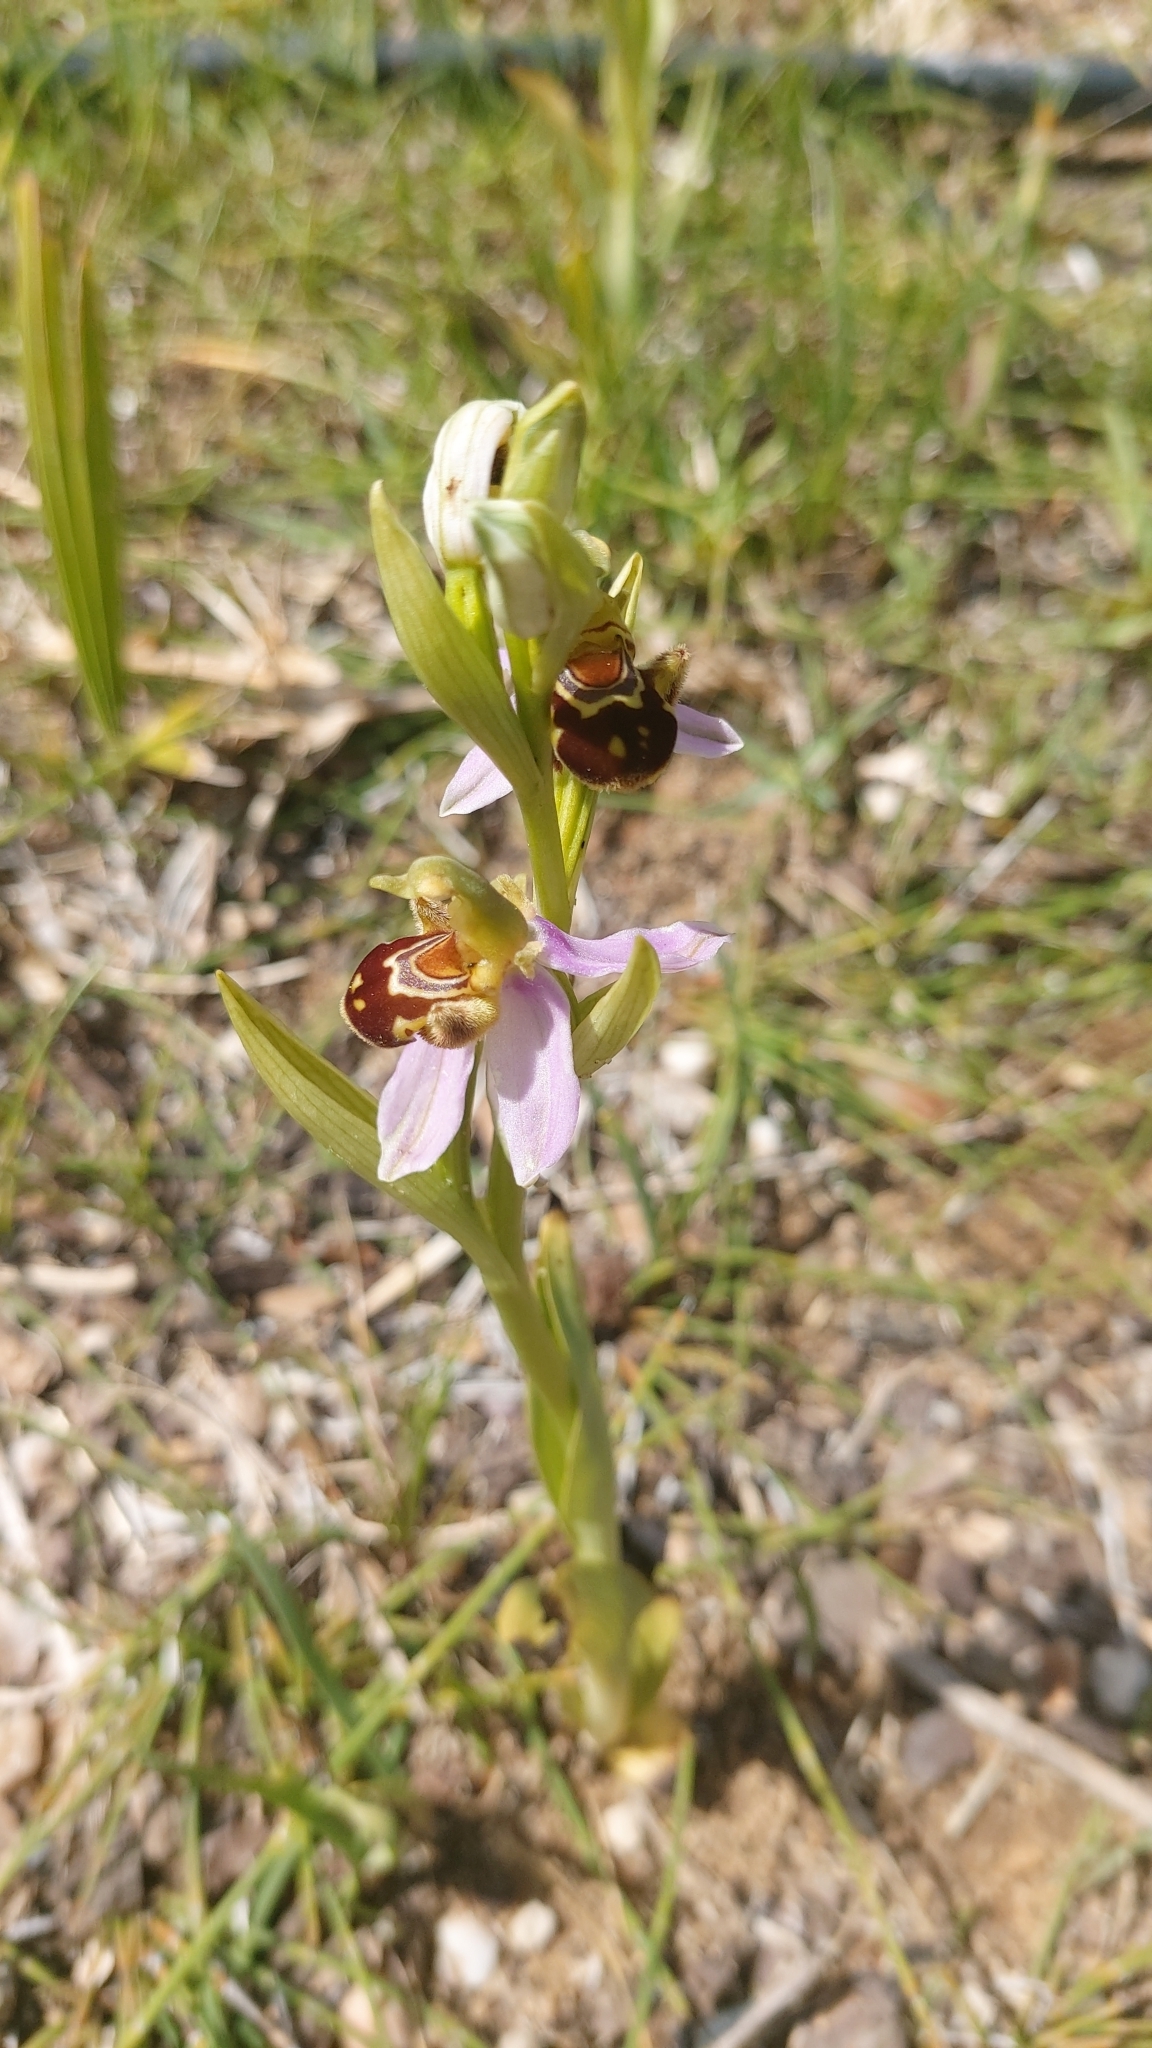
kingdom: Plantae
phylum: Tracheophyta
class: Liliopsida
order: Asparagales
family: Orchidaceae
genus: Ophrys
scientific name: Ophrys apifera
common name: Bee orchid
